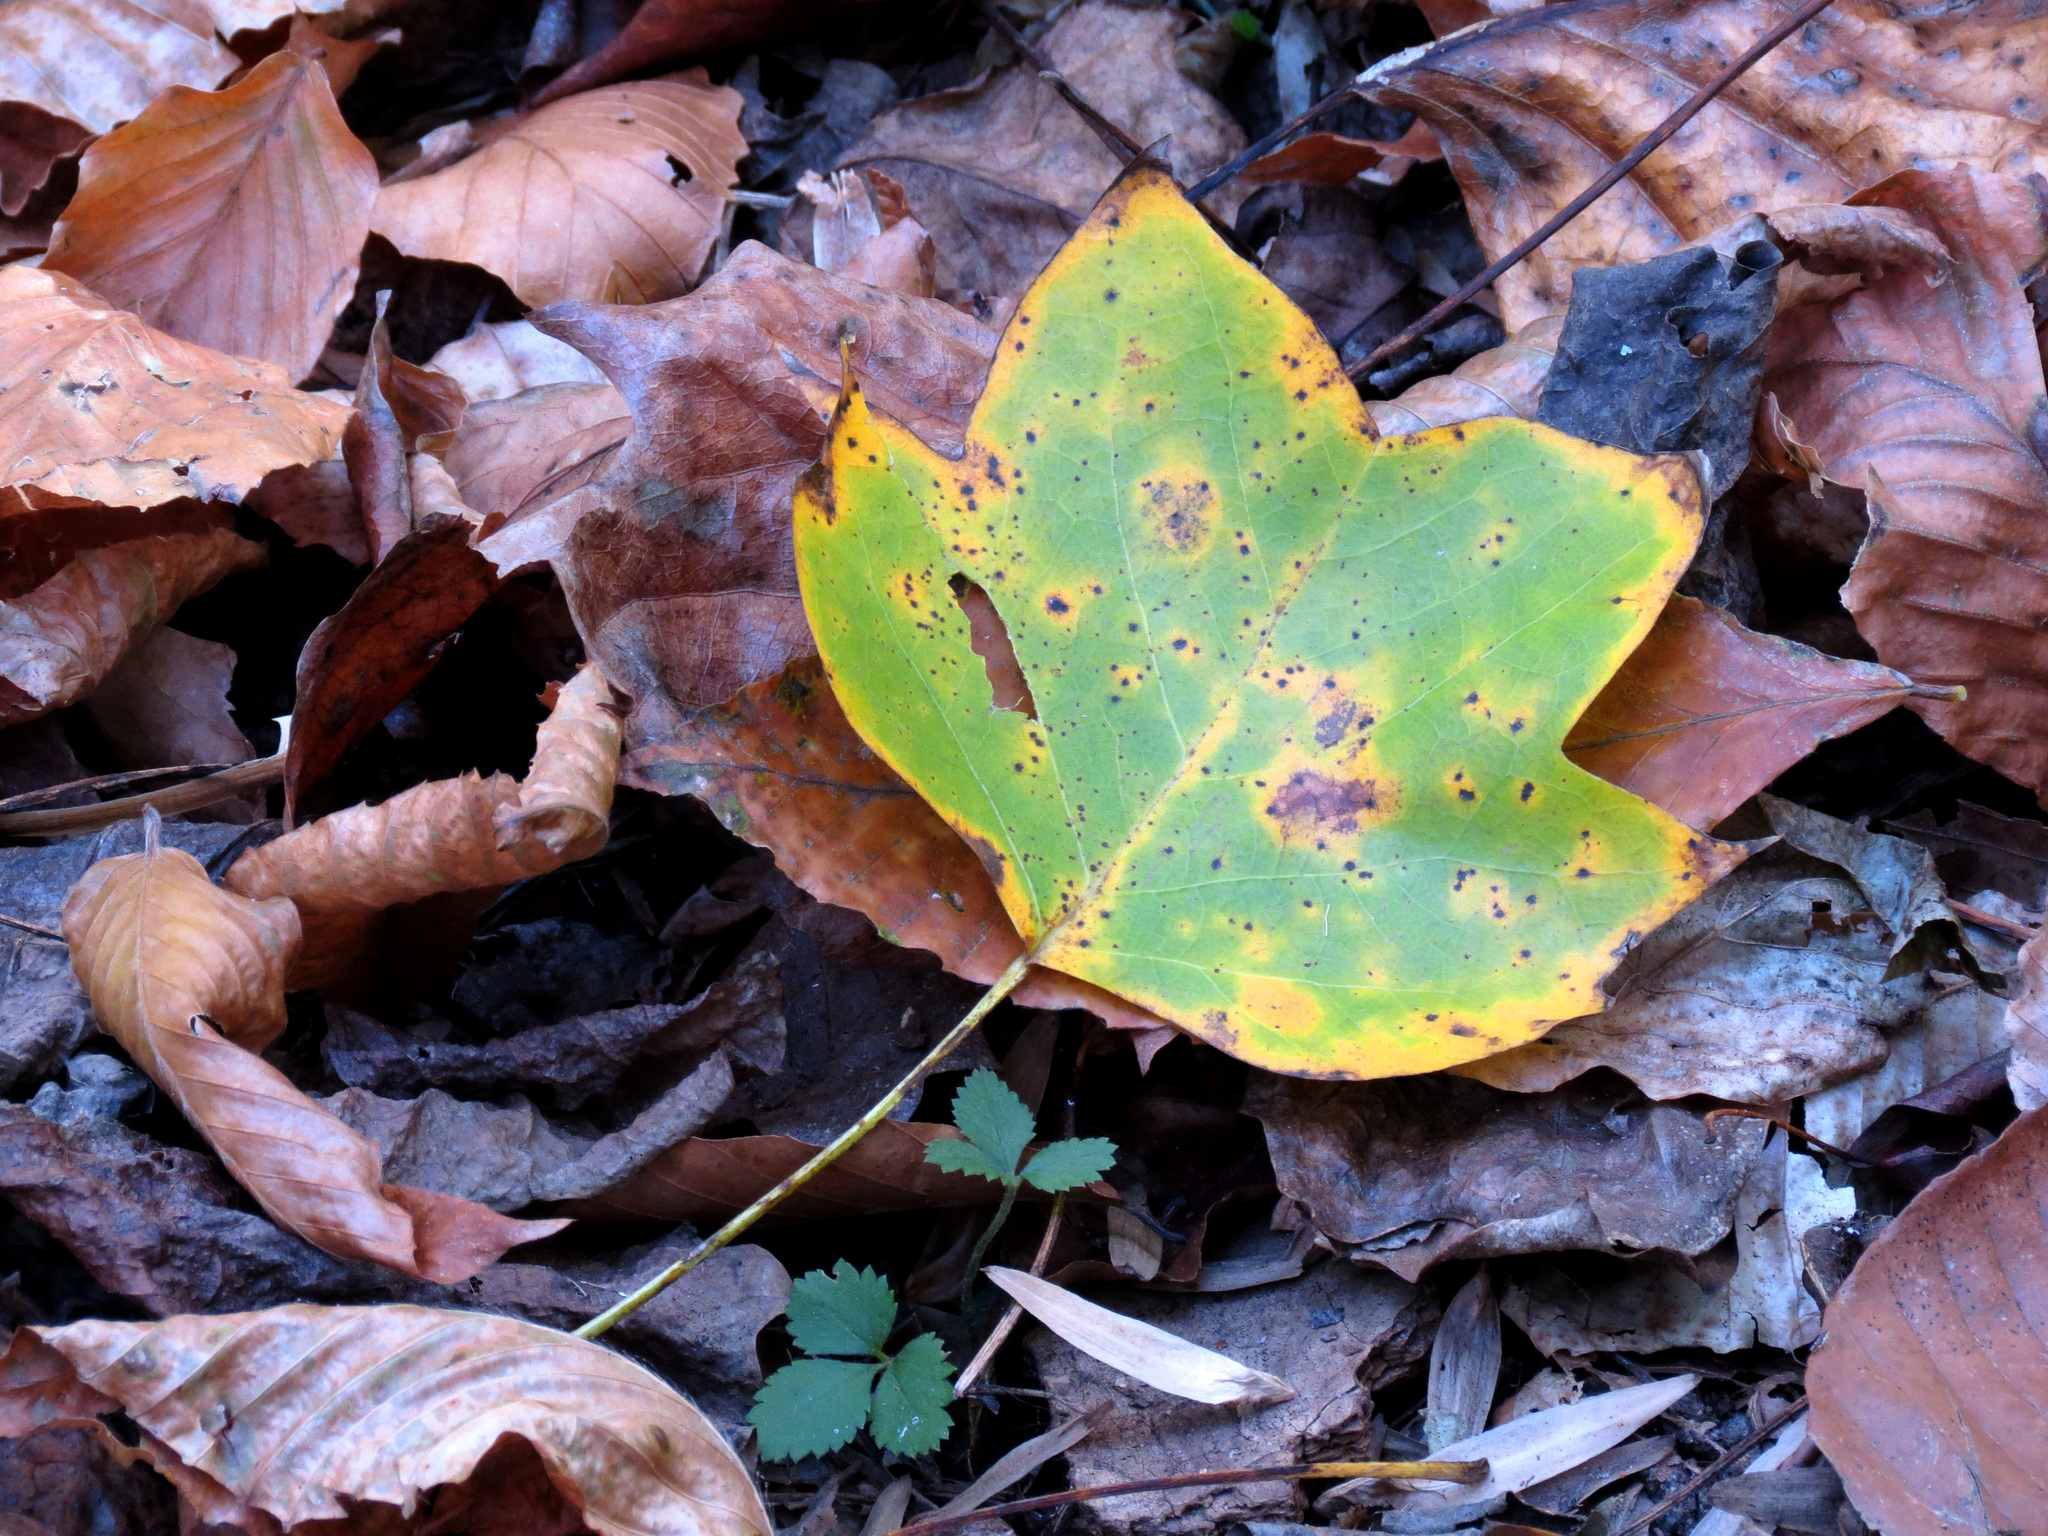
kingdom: Plantae
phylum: Tracheophyta
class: Magnoliopsida
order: Magnoliales
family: Magnoliaceae
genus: Liriodendron
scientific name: Liriodendron tulipifera
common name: Tulip tree
